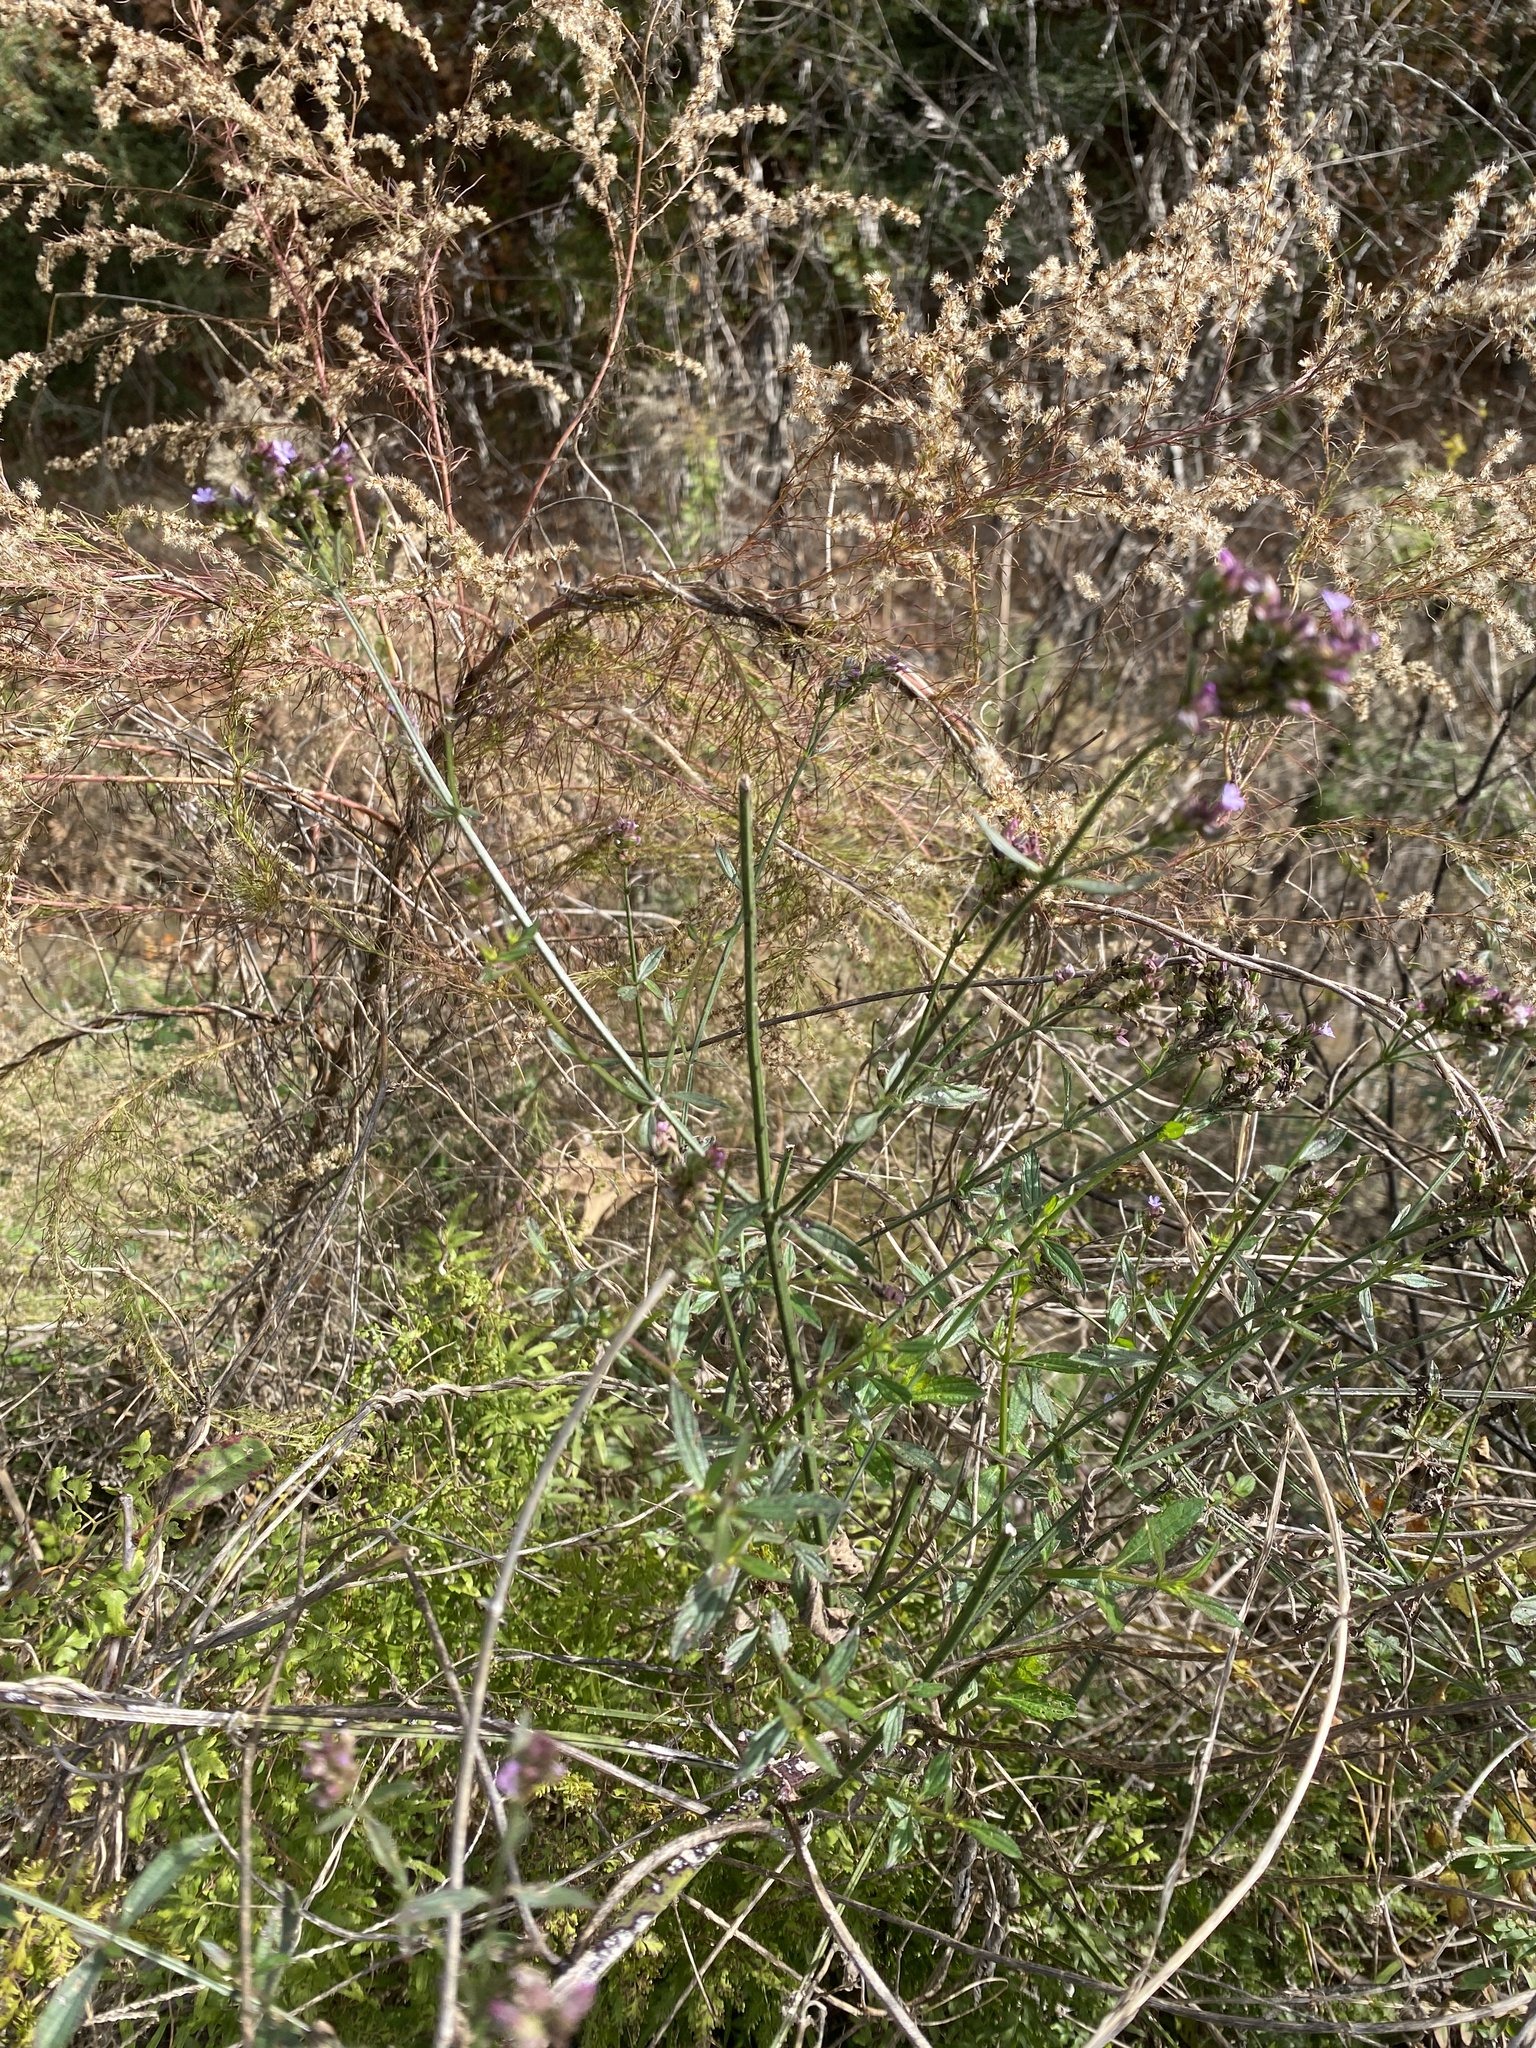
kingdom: Plantae
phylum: Tracheophyta
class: Magnoliopsida
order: Lamiales
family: Verbenaceae
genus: Verbena
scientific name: Verbena brasiliensis
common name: Brazilian vervain
